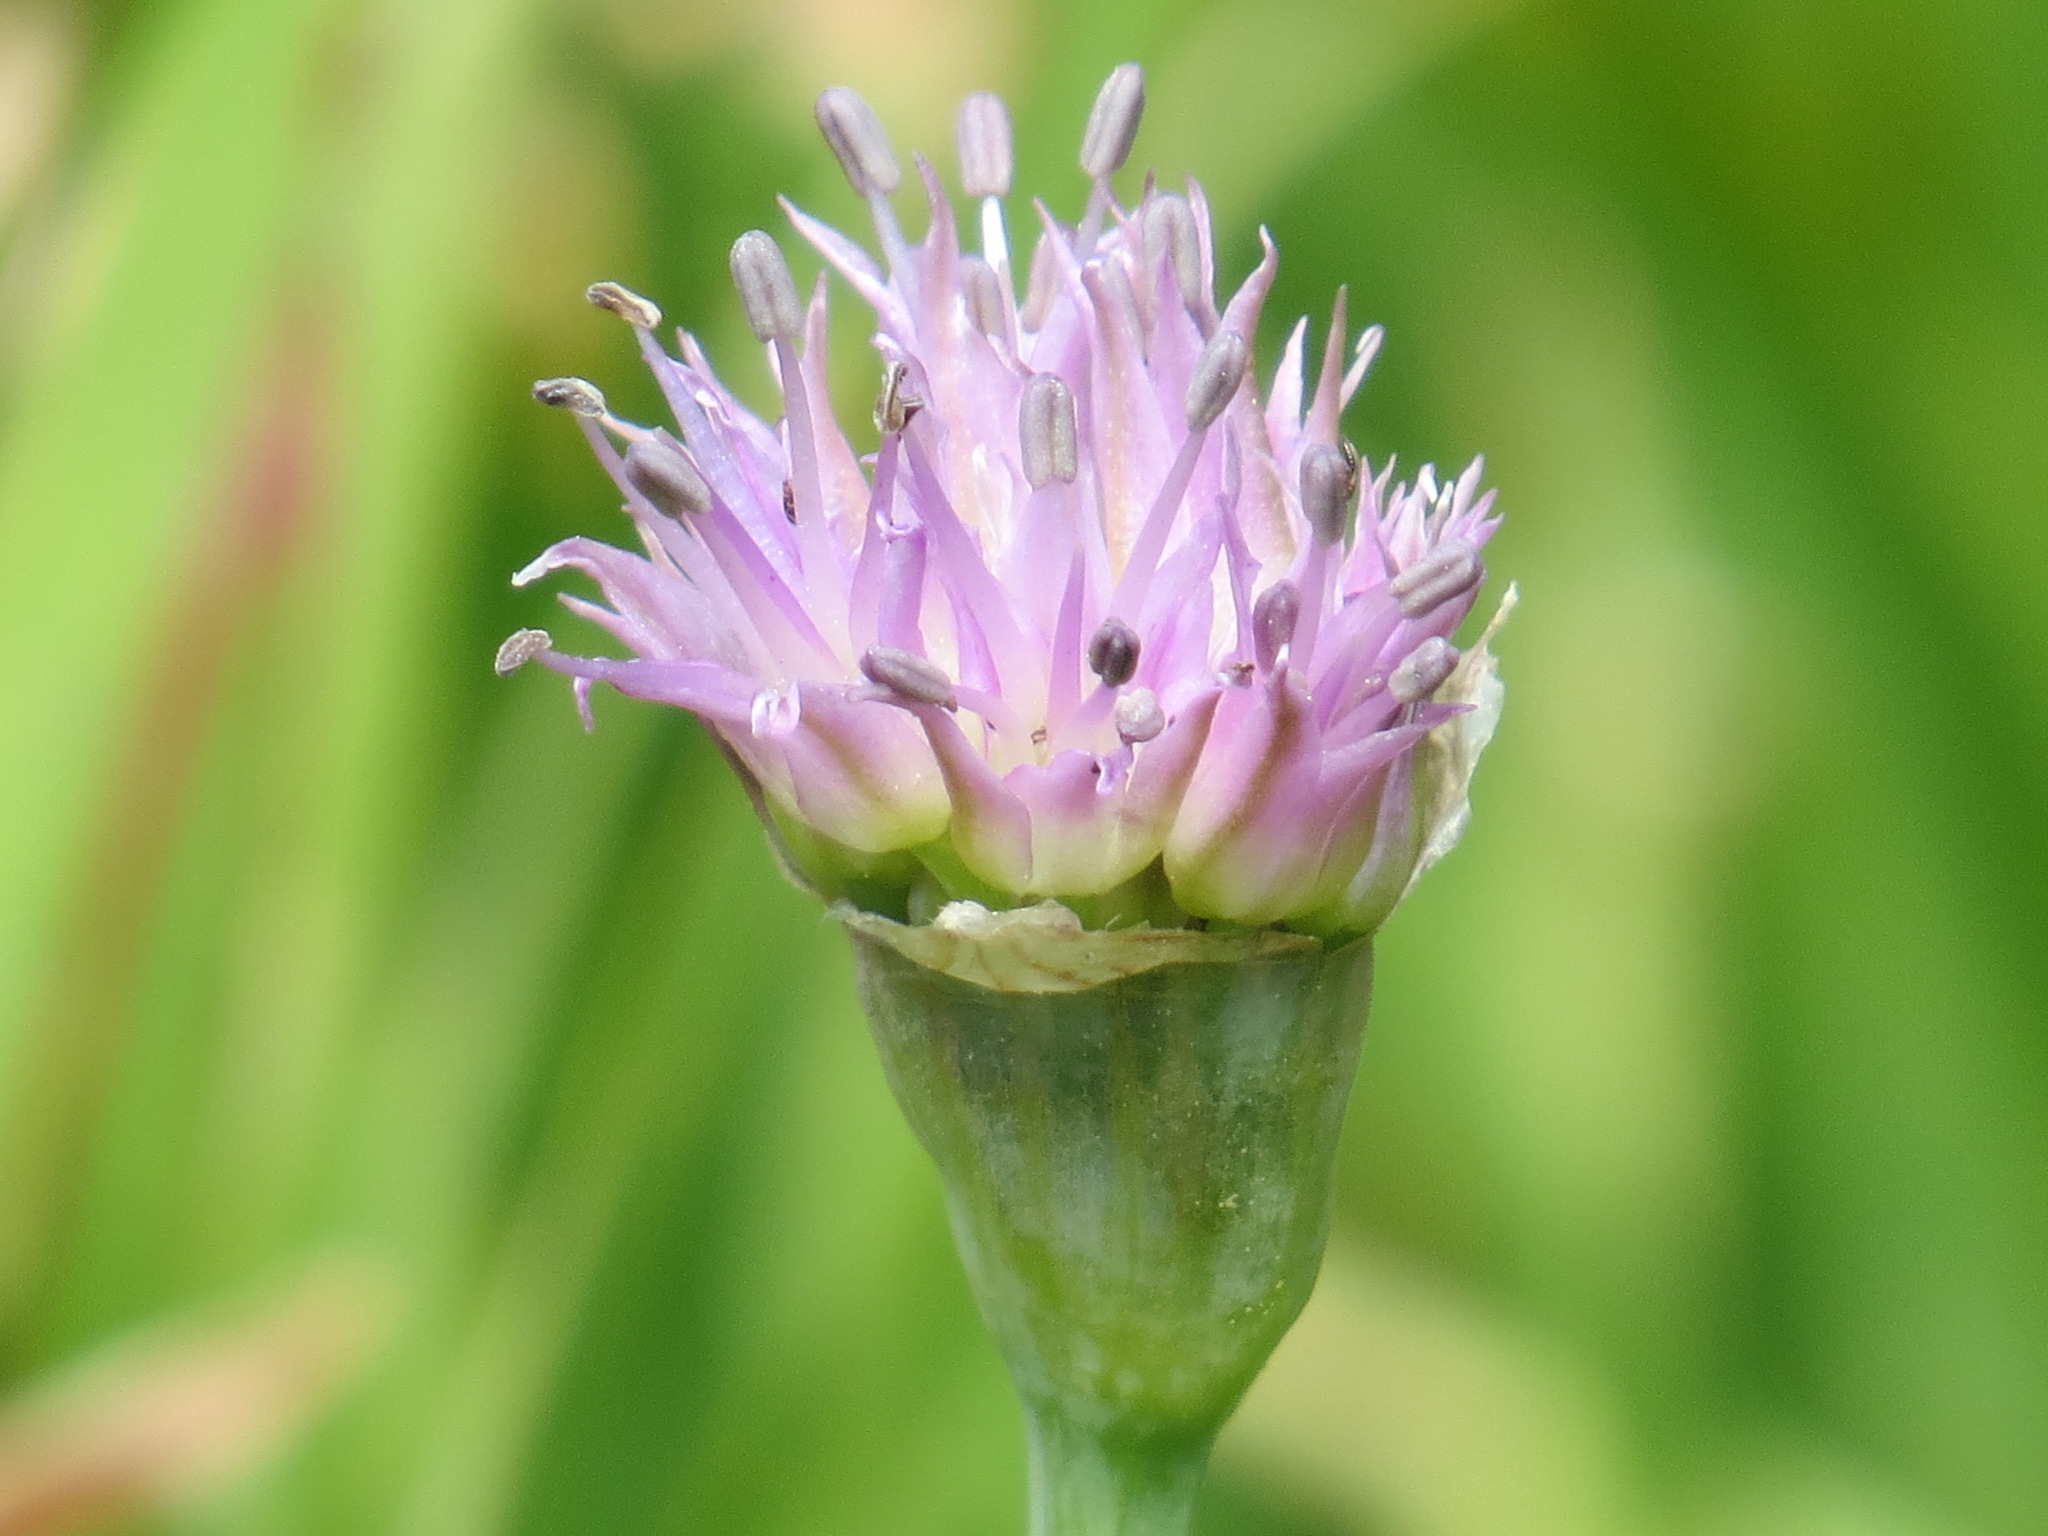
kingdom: Plantae
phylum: Tracheophyta
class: Liliopsida
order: Asparagales
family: Amaryllidaceae
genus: Allium
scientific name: Allium validum
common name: Pacific mountain onion
